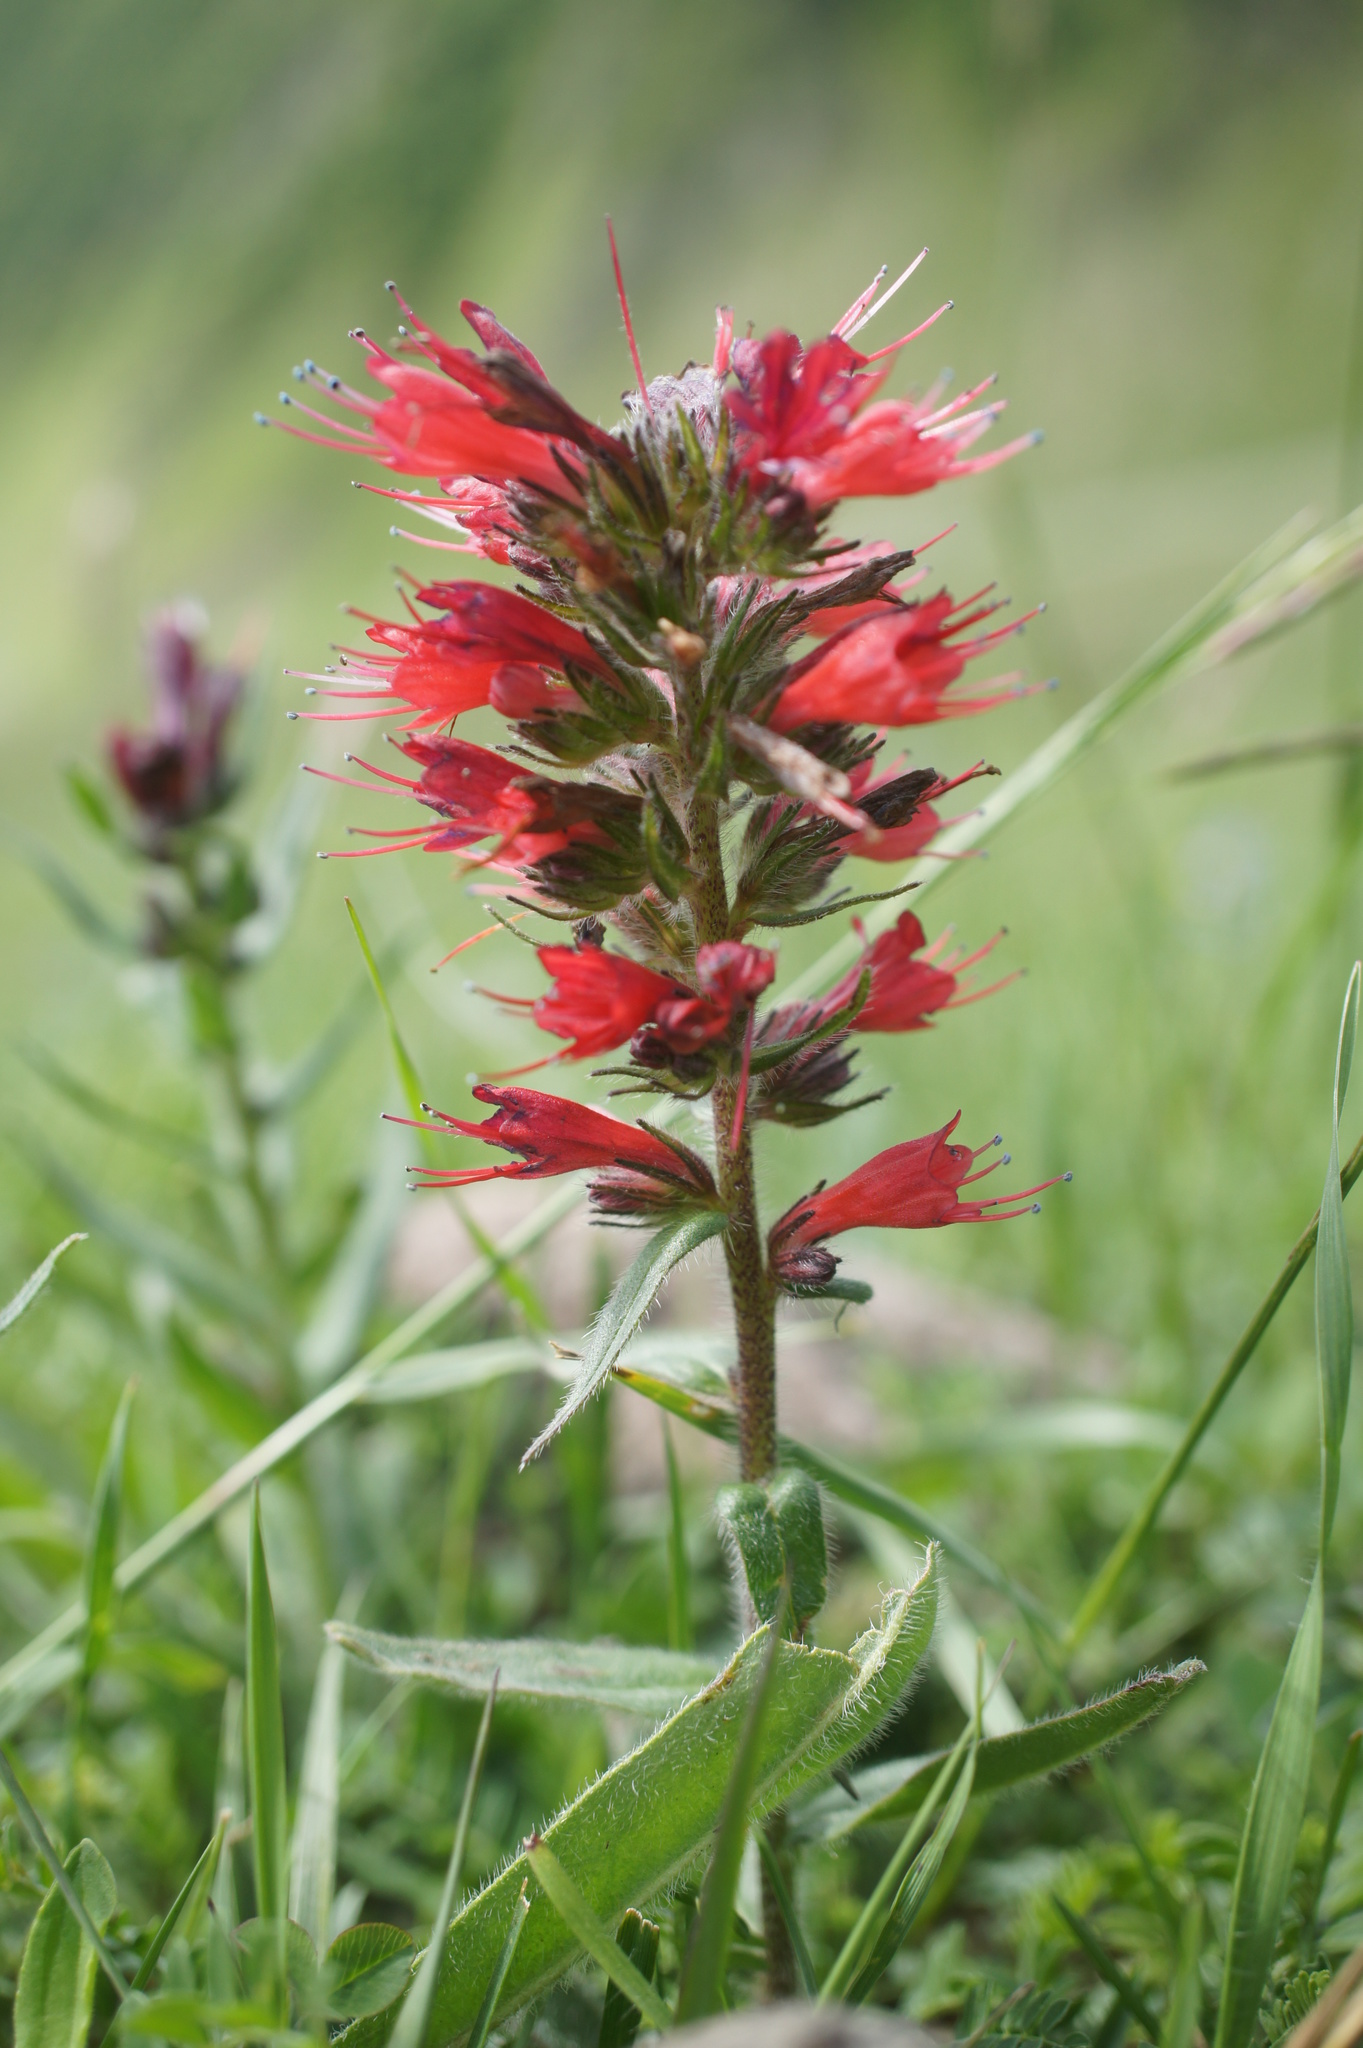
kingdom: Plantae
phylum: Tracheophyta
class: Magnoliopsida
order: Boraginales
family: Boraginaceae
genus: Pontechium
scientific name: Pontechium maculatum
